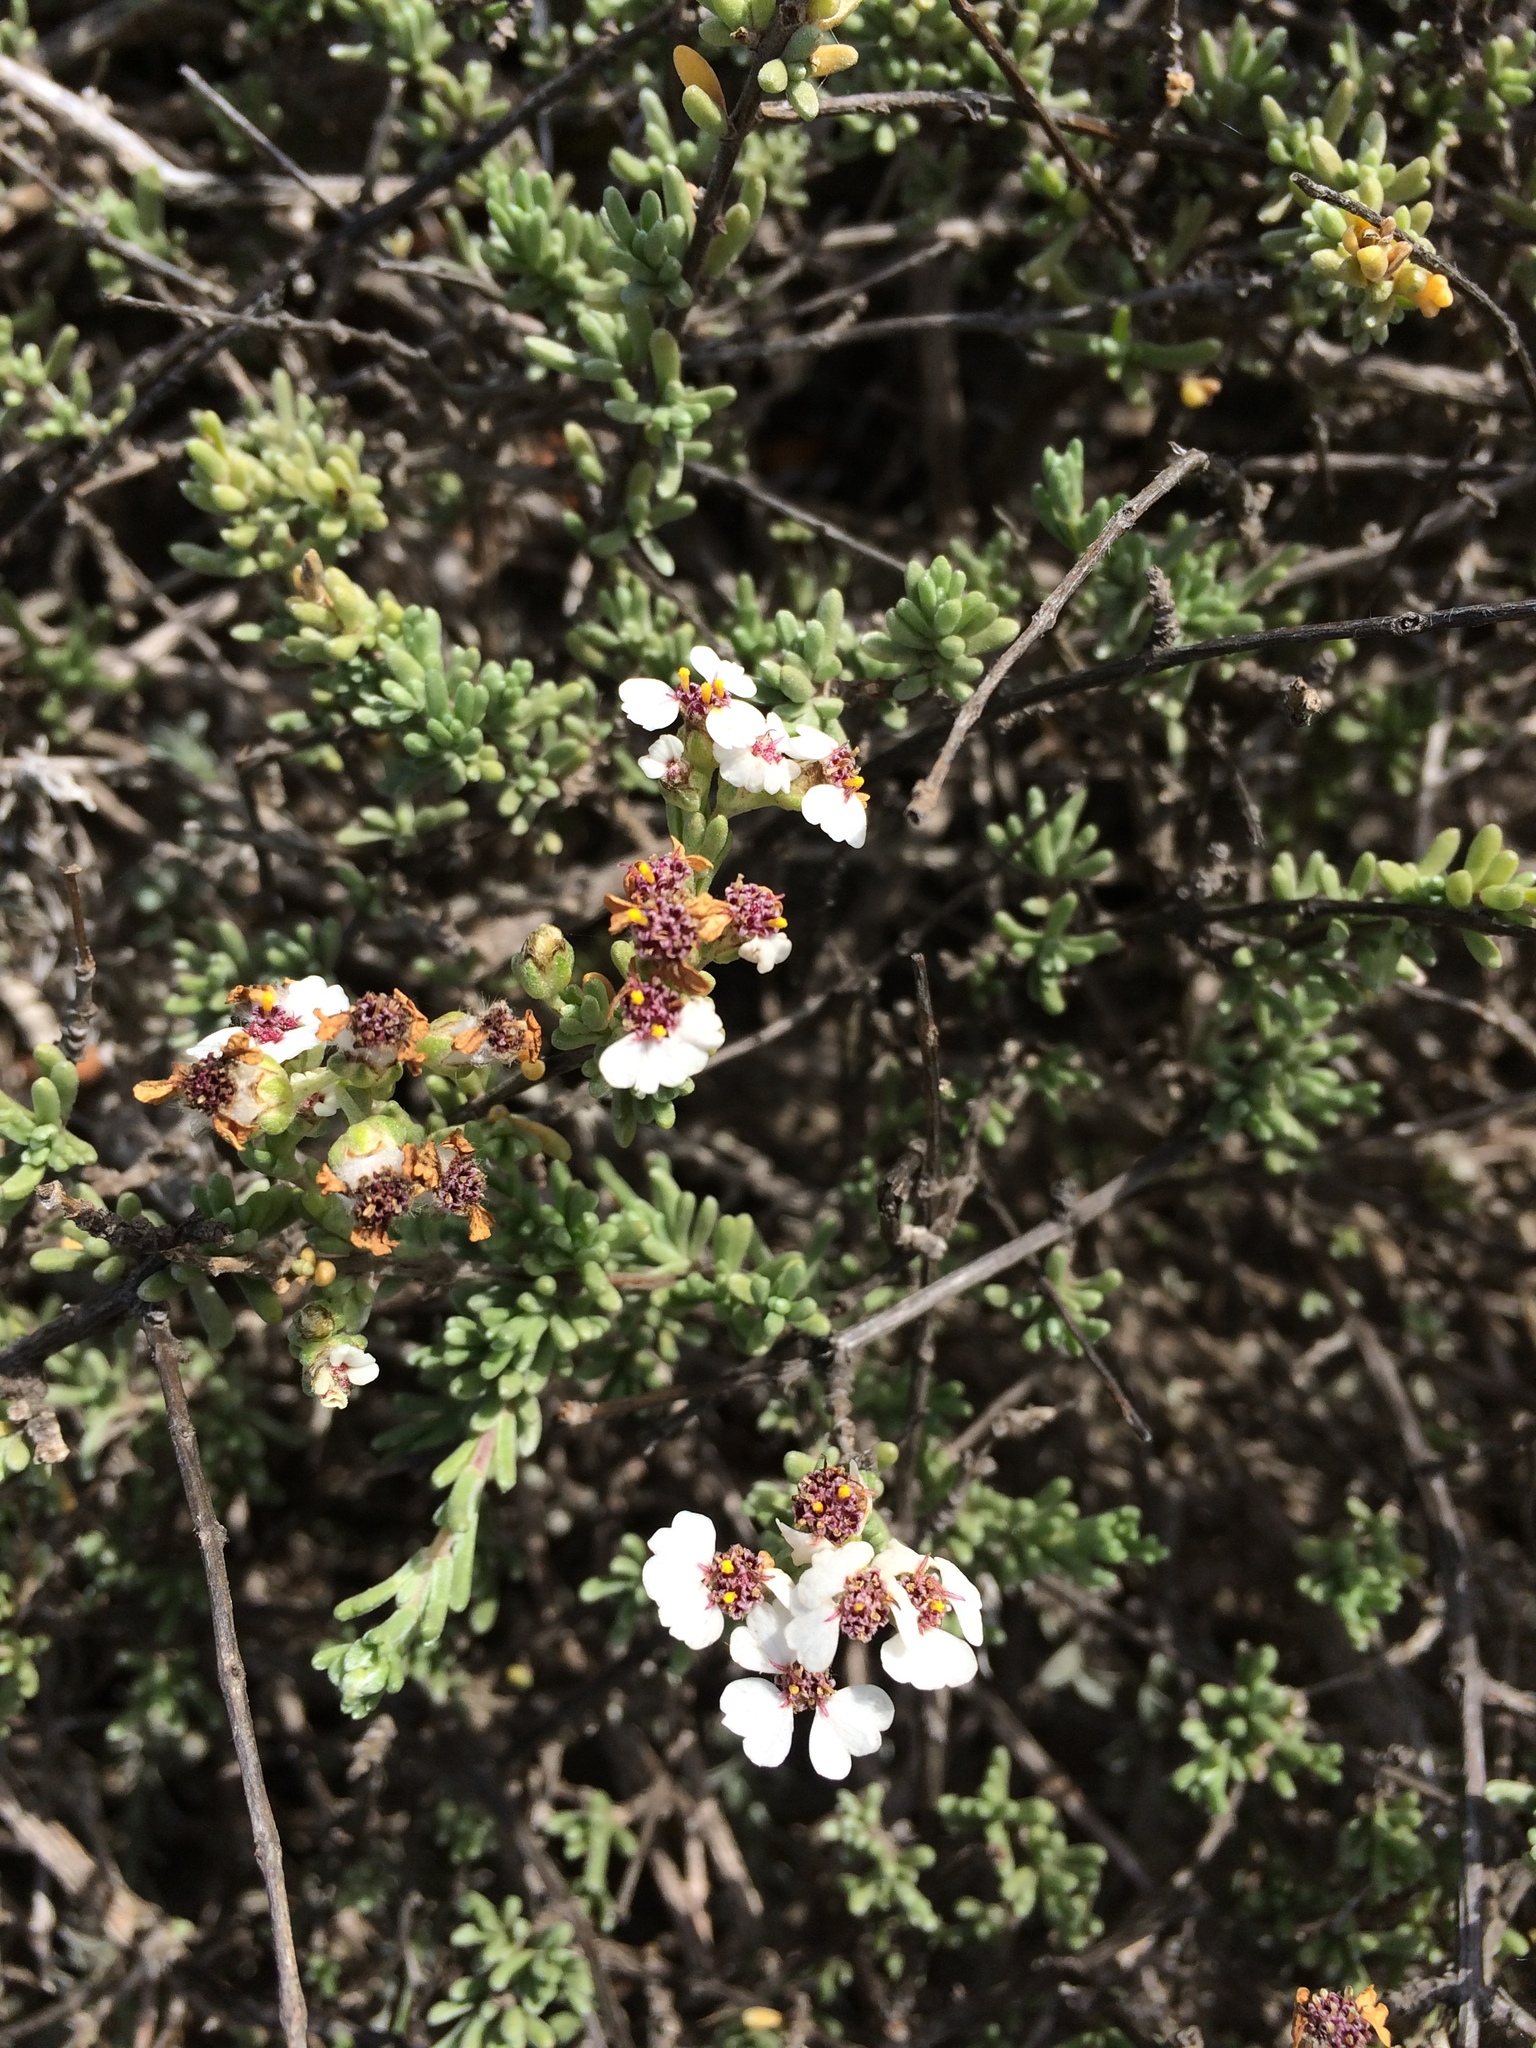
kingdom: Plantae
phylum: Tracheophyta
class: Magnoliopsida
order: Asterales
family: Asteraceae
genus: Eriocephalus
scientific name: Eriocephalus africanus
